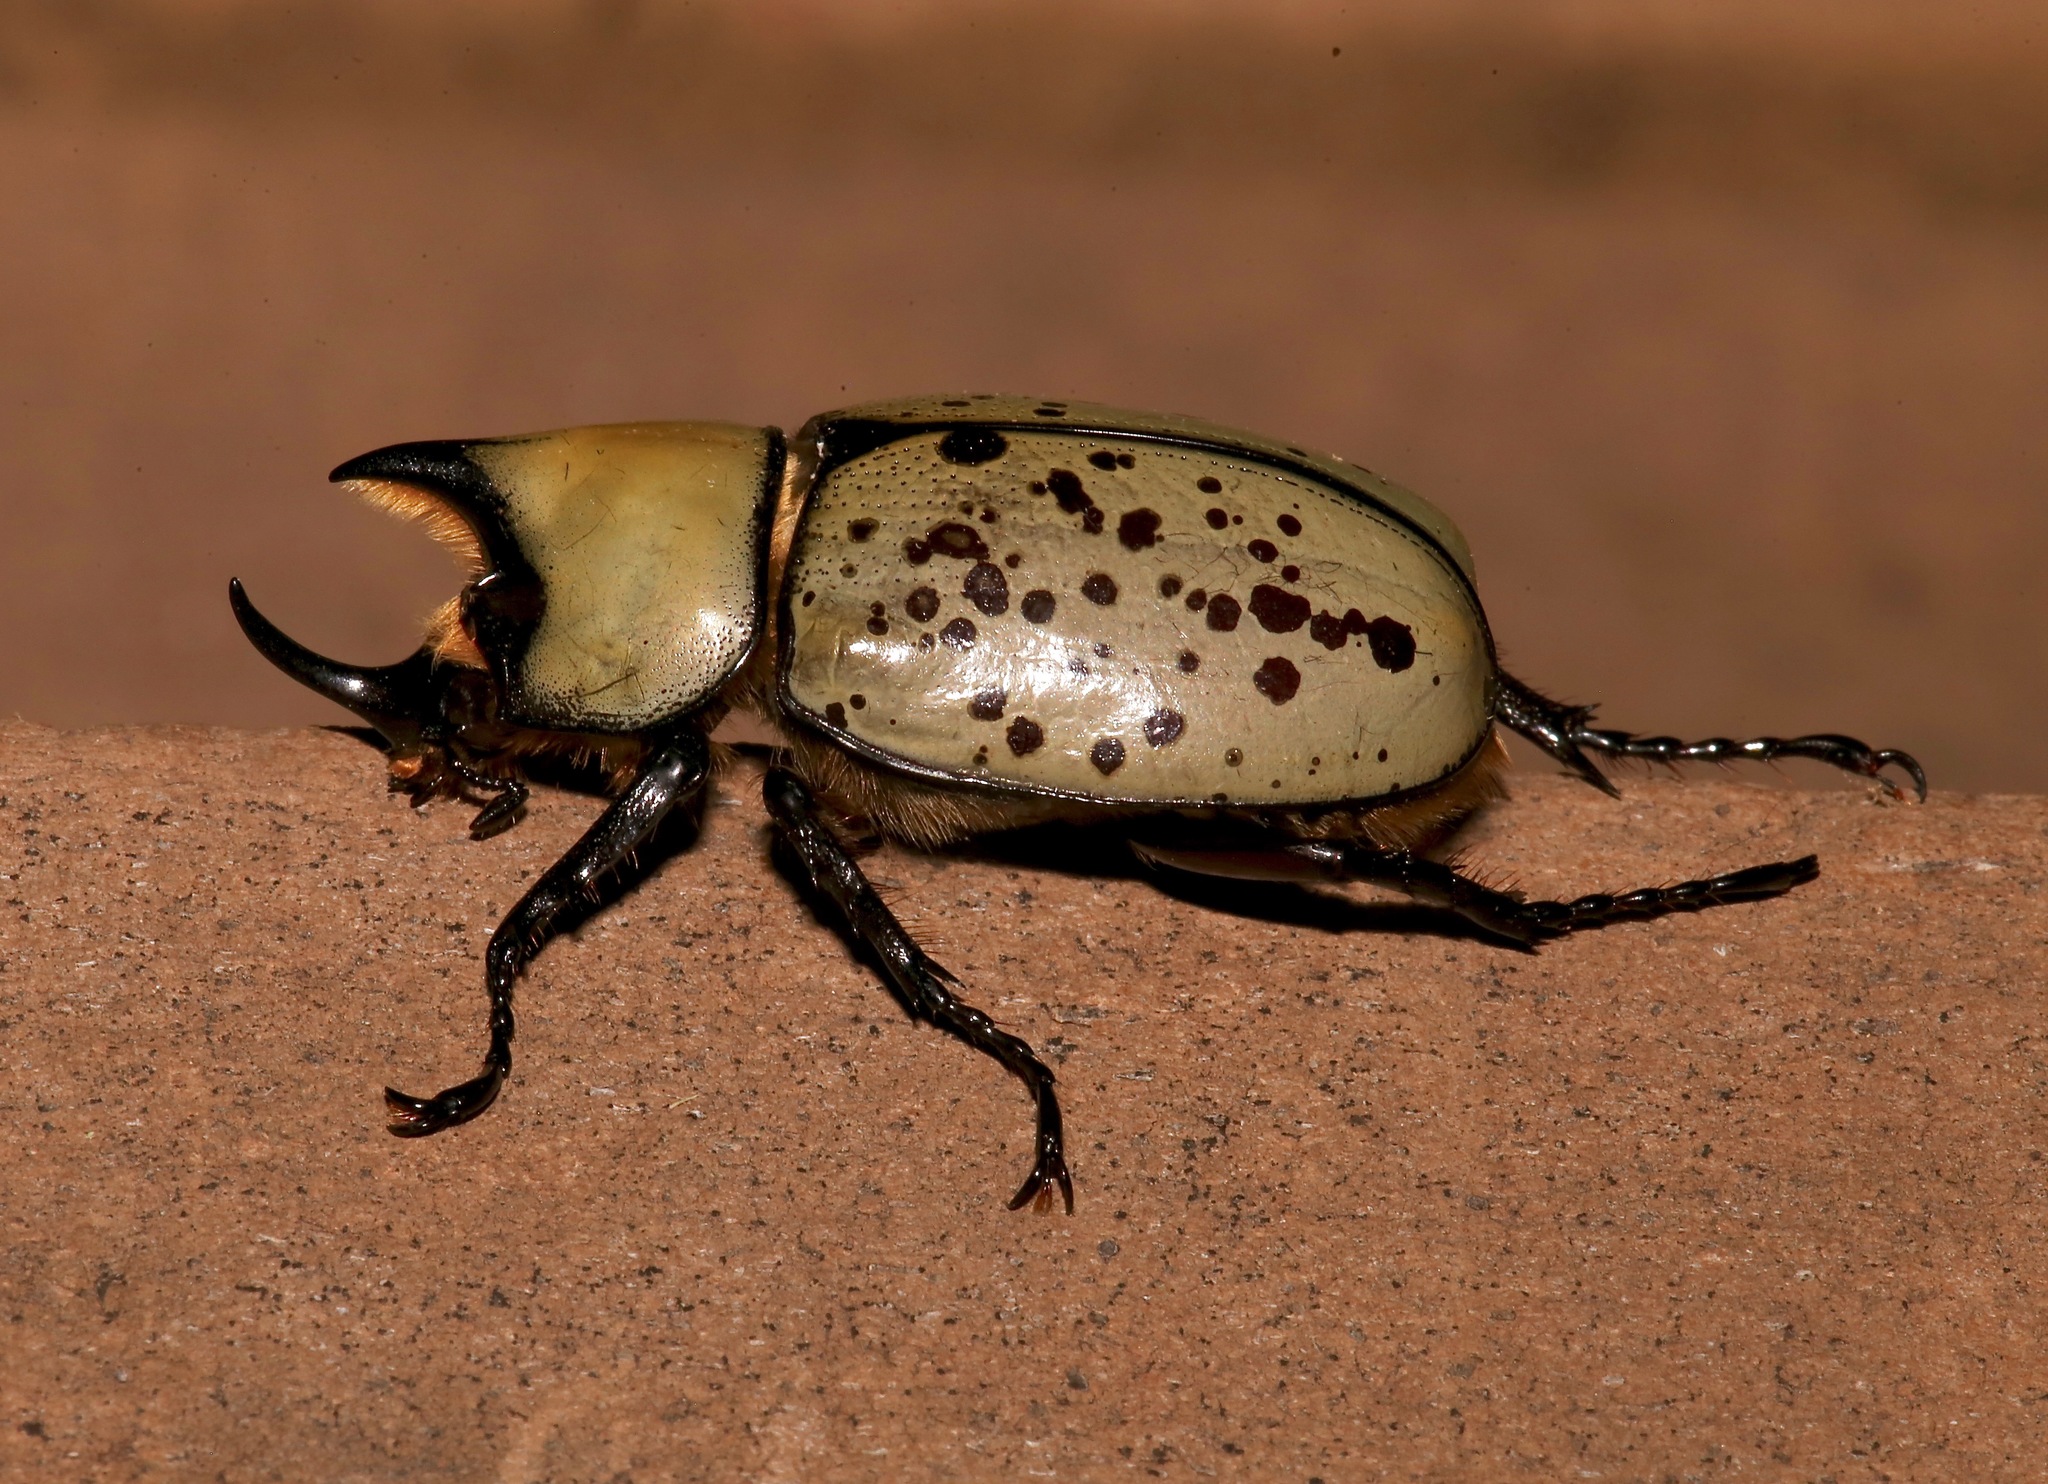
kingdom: Animalia
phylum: Arthropoda
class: Insecta
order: Coleoptera
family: Scarabaeidae
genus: Dynastes
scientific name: Dynastes tityus
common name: Eastern hercules beetle
